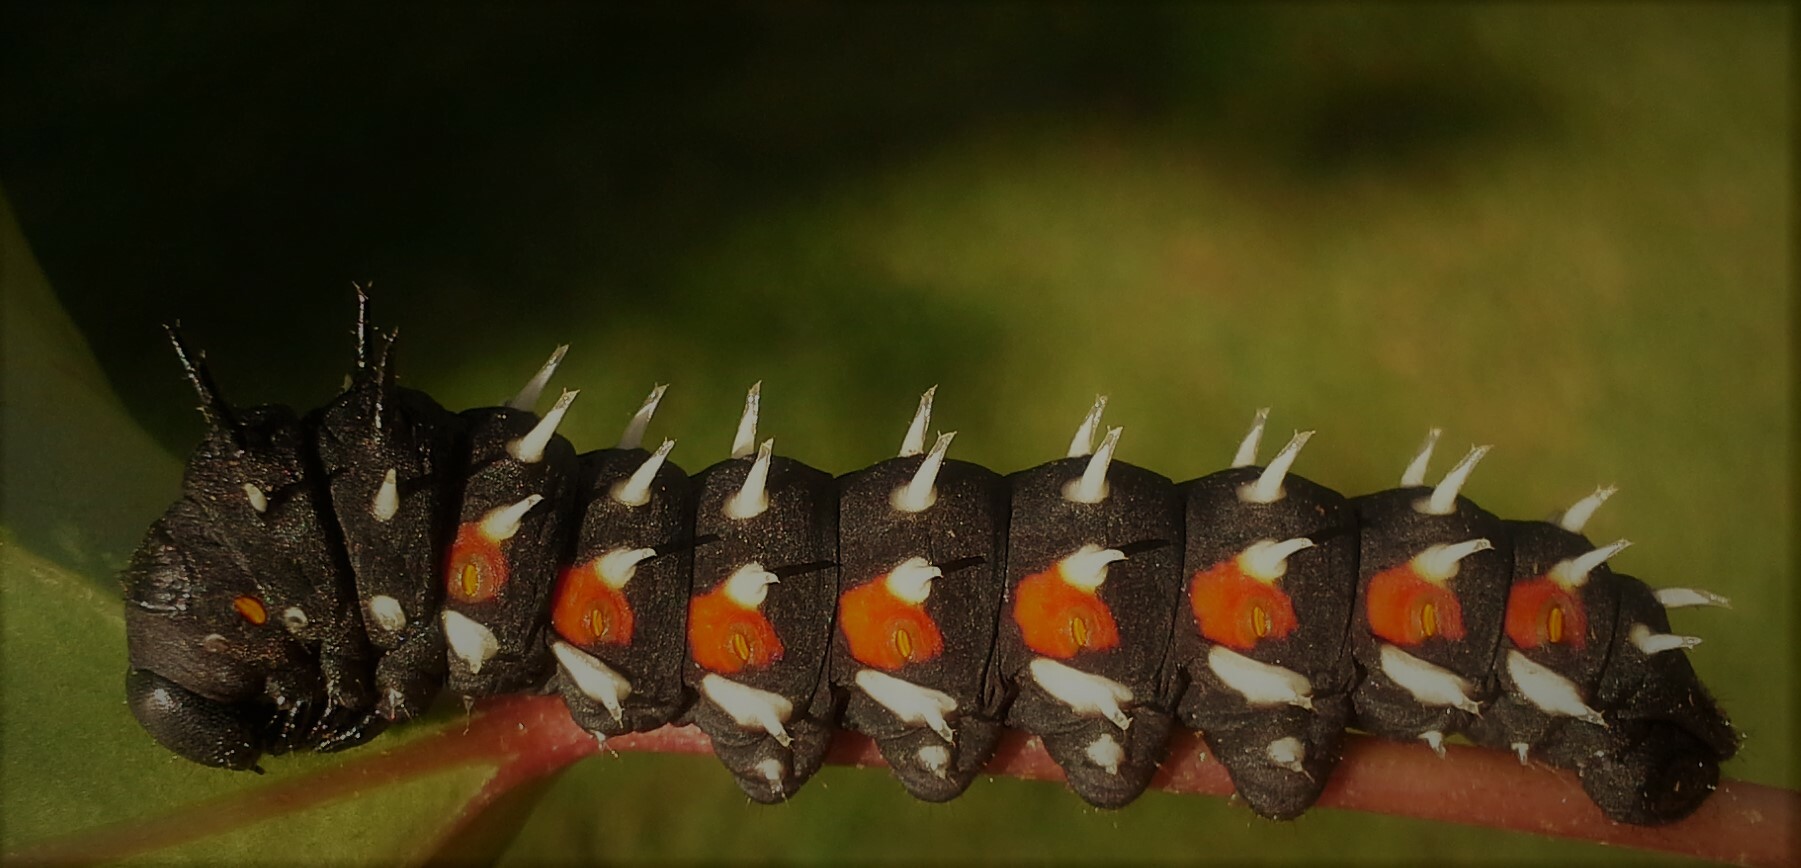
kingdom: Animalia
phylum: Arthropoda
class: Insecta
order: Lepidoptera
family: Saturniidae
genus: Bunaea
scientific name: Bunaea alcinoe
